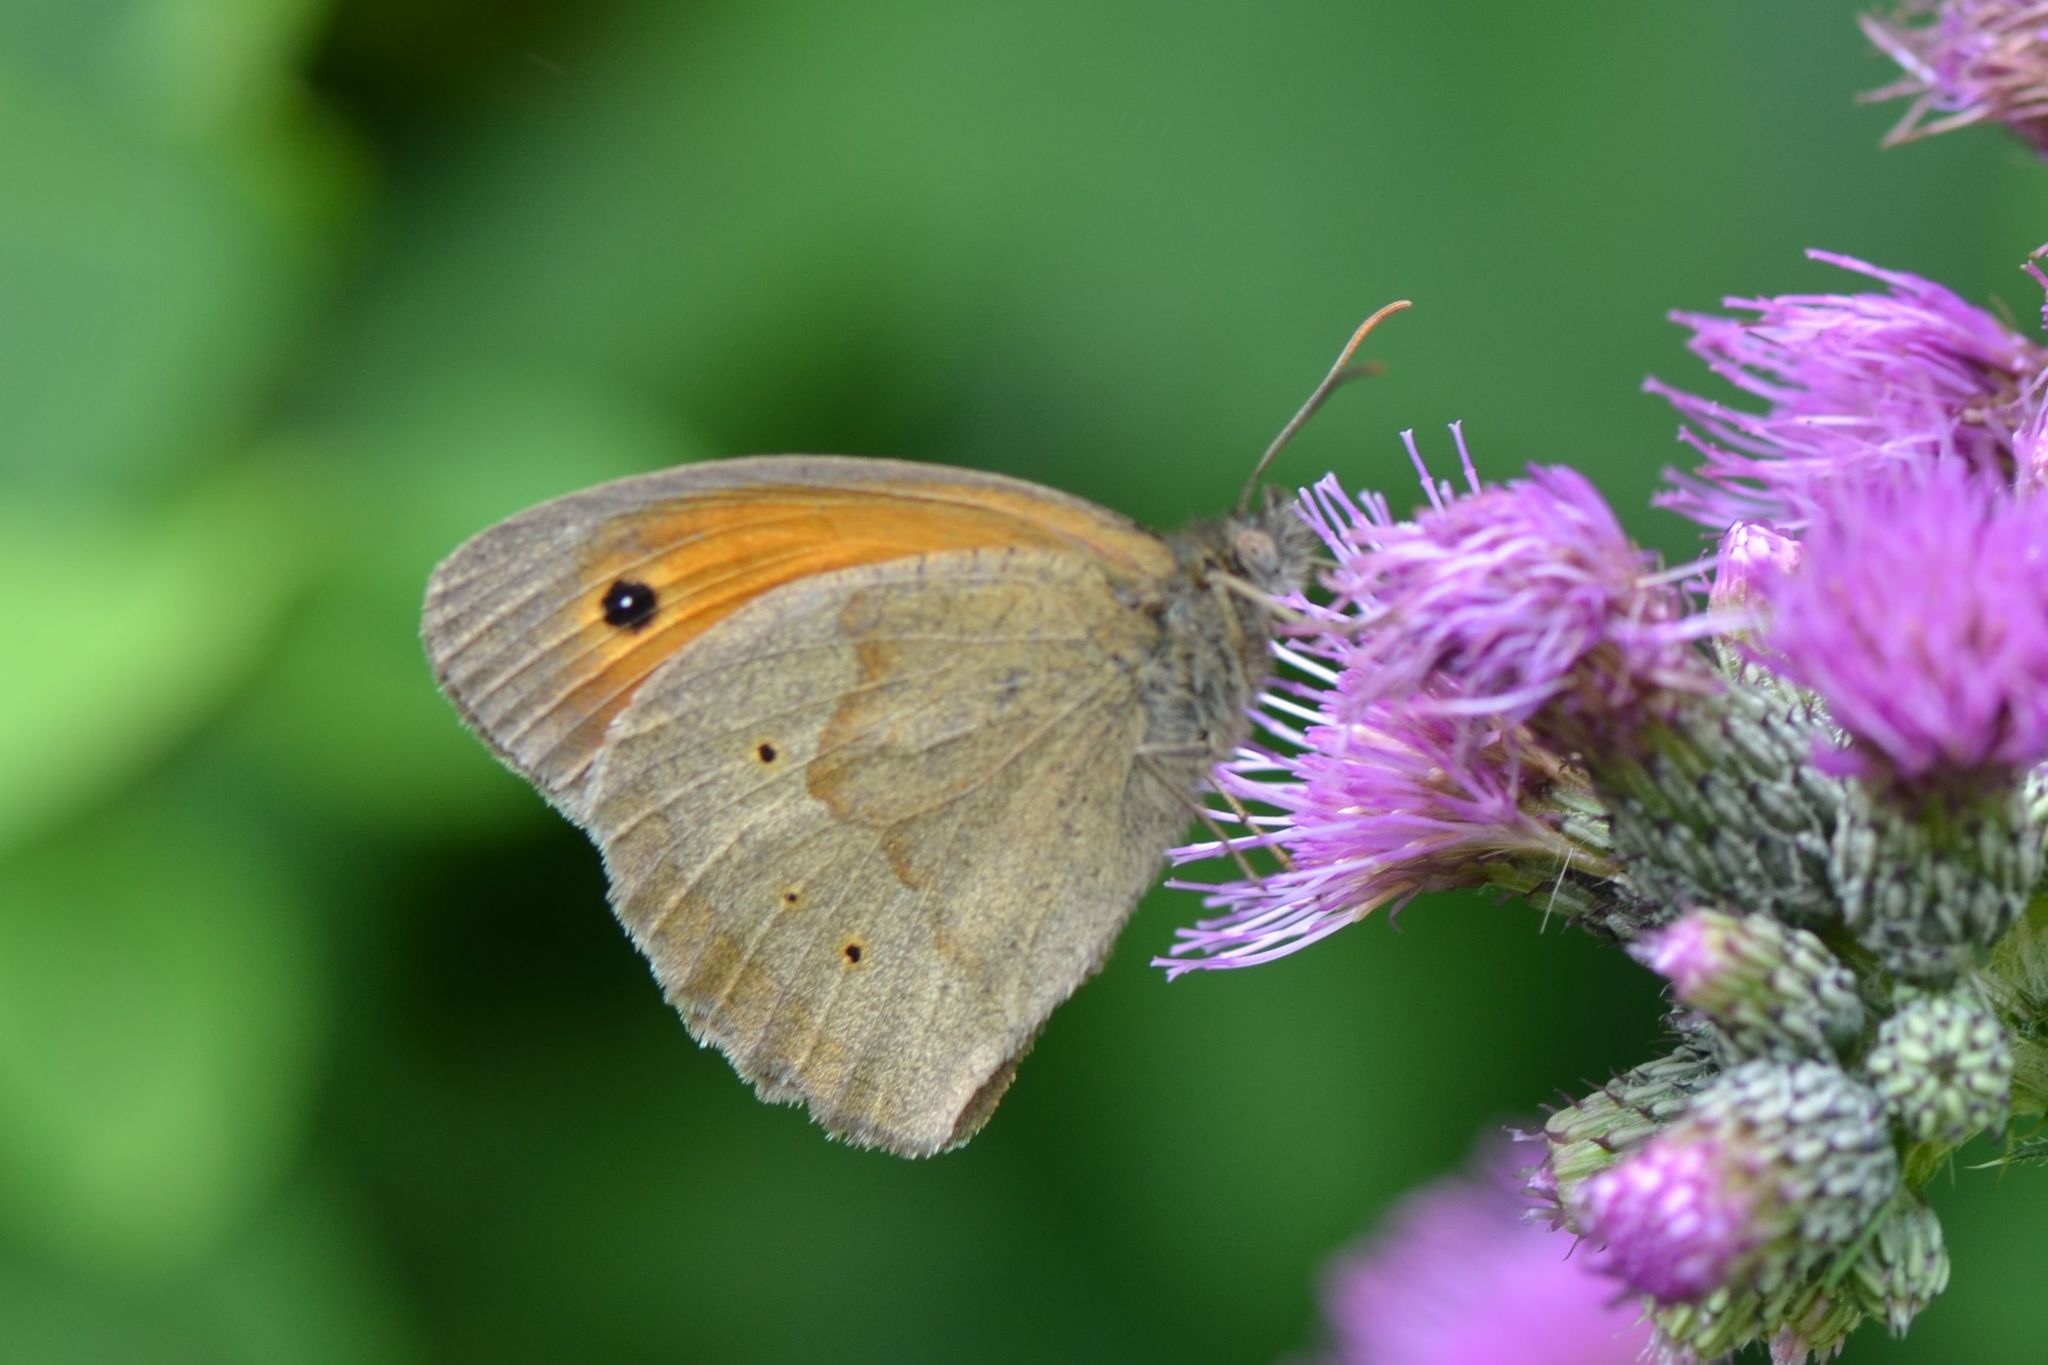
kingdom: Animalia
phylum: Arthropoda
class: Insecta
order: Lepidoptera
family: Nymphalidae
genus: Maniola
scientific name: Maniola jurtina
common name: Meadow brown
